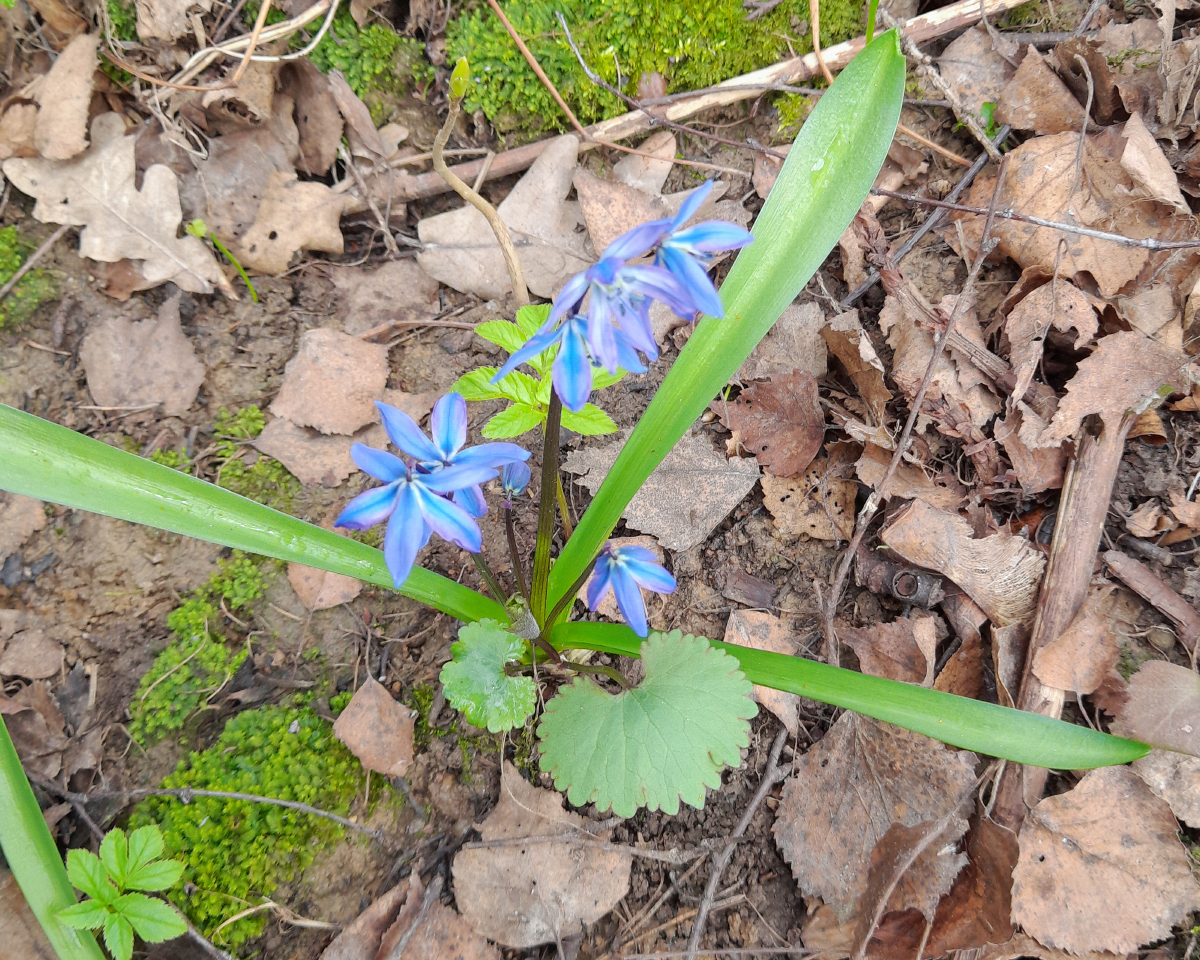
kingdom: Plantae
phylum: Tracheophyta
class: Liliopsida
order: Asparagales
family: Asparagaceae
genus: Scilla
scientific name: Scilla siberica
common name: Siberian squill
